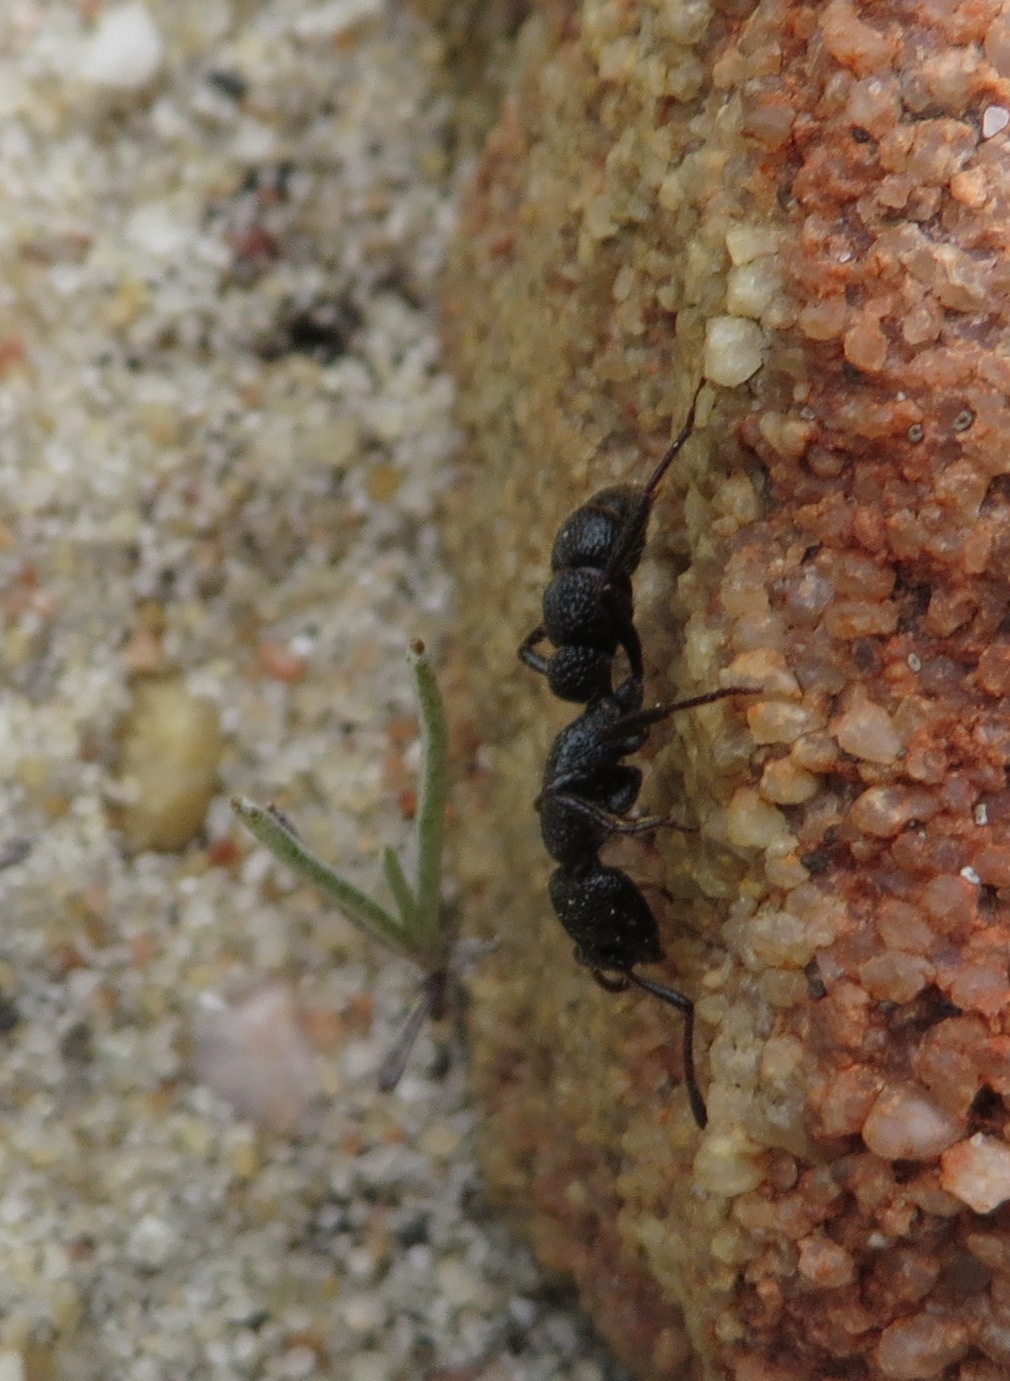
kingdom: Animalia
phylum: Arthropoda
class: Insecta
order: Hymenoptera
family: Formicidae
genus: Bothroponera
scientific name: Bothroponera cariosa
